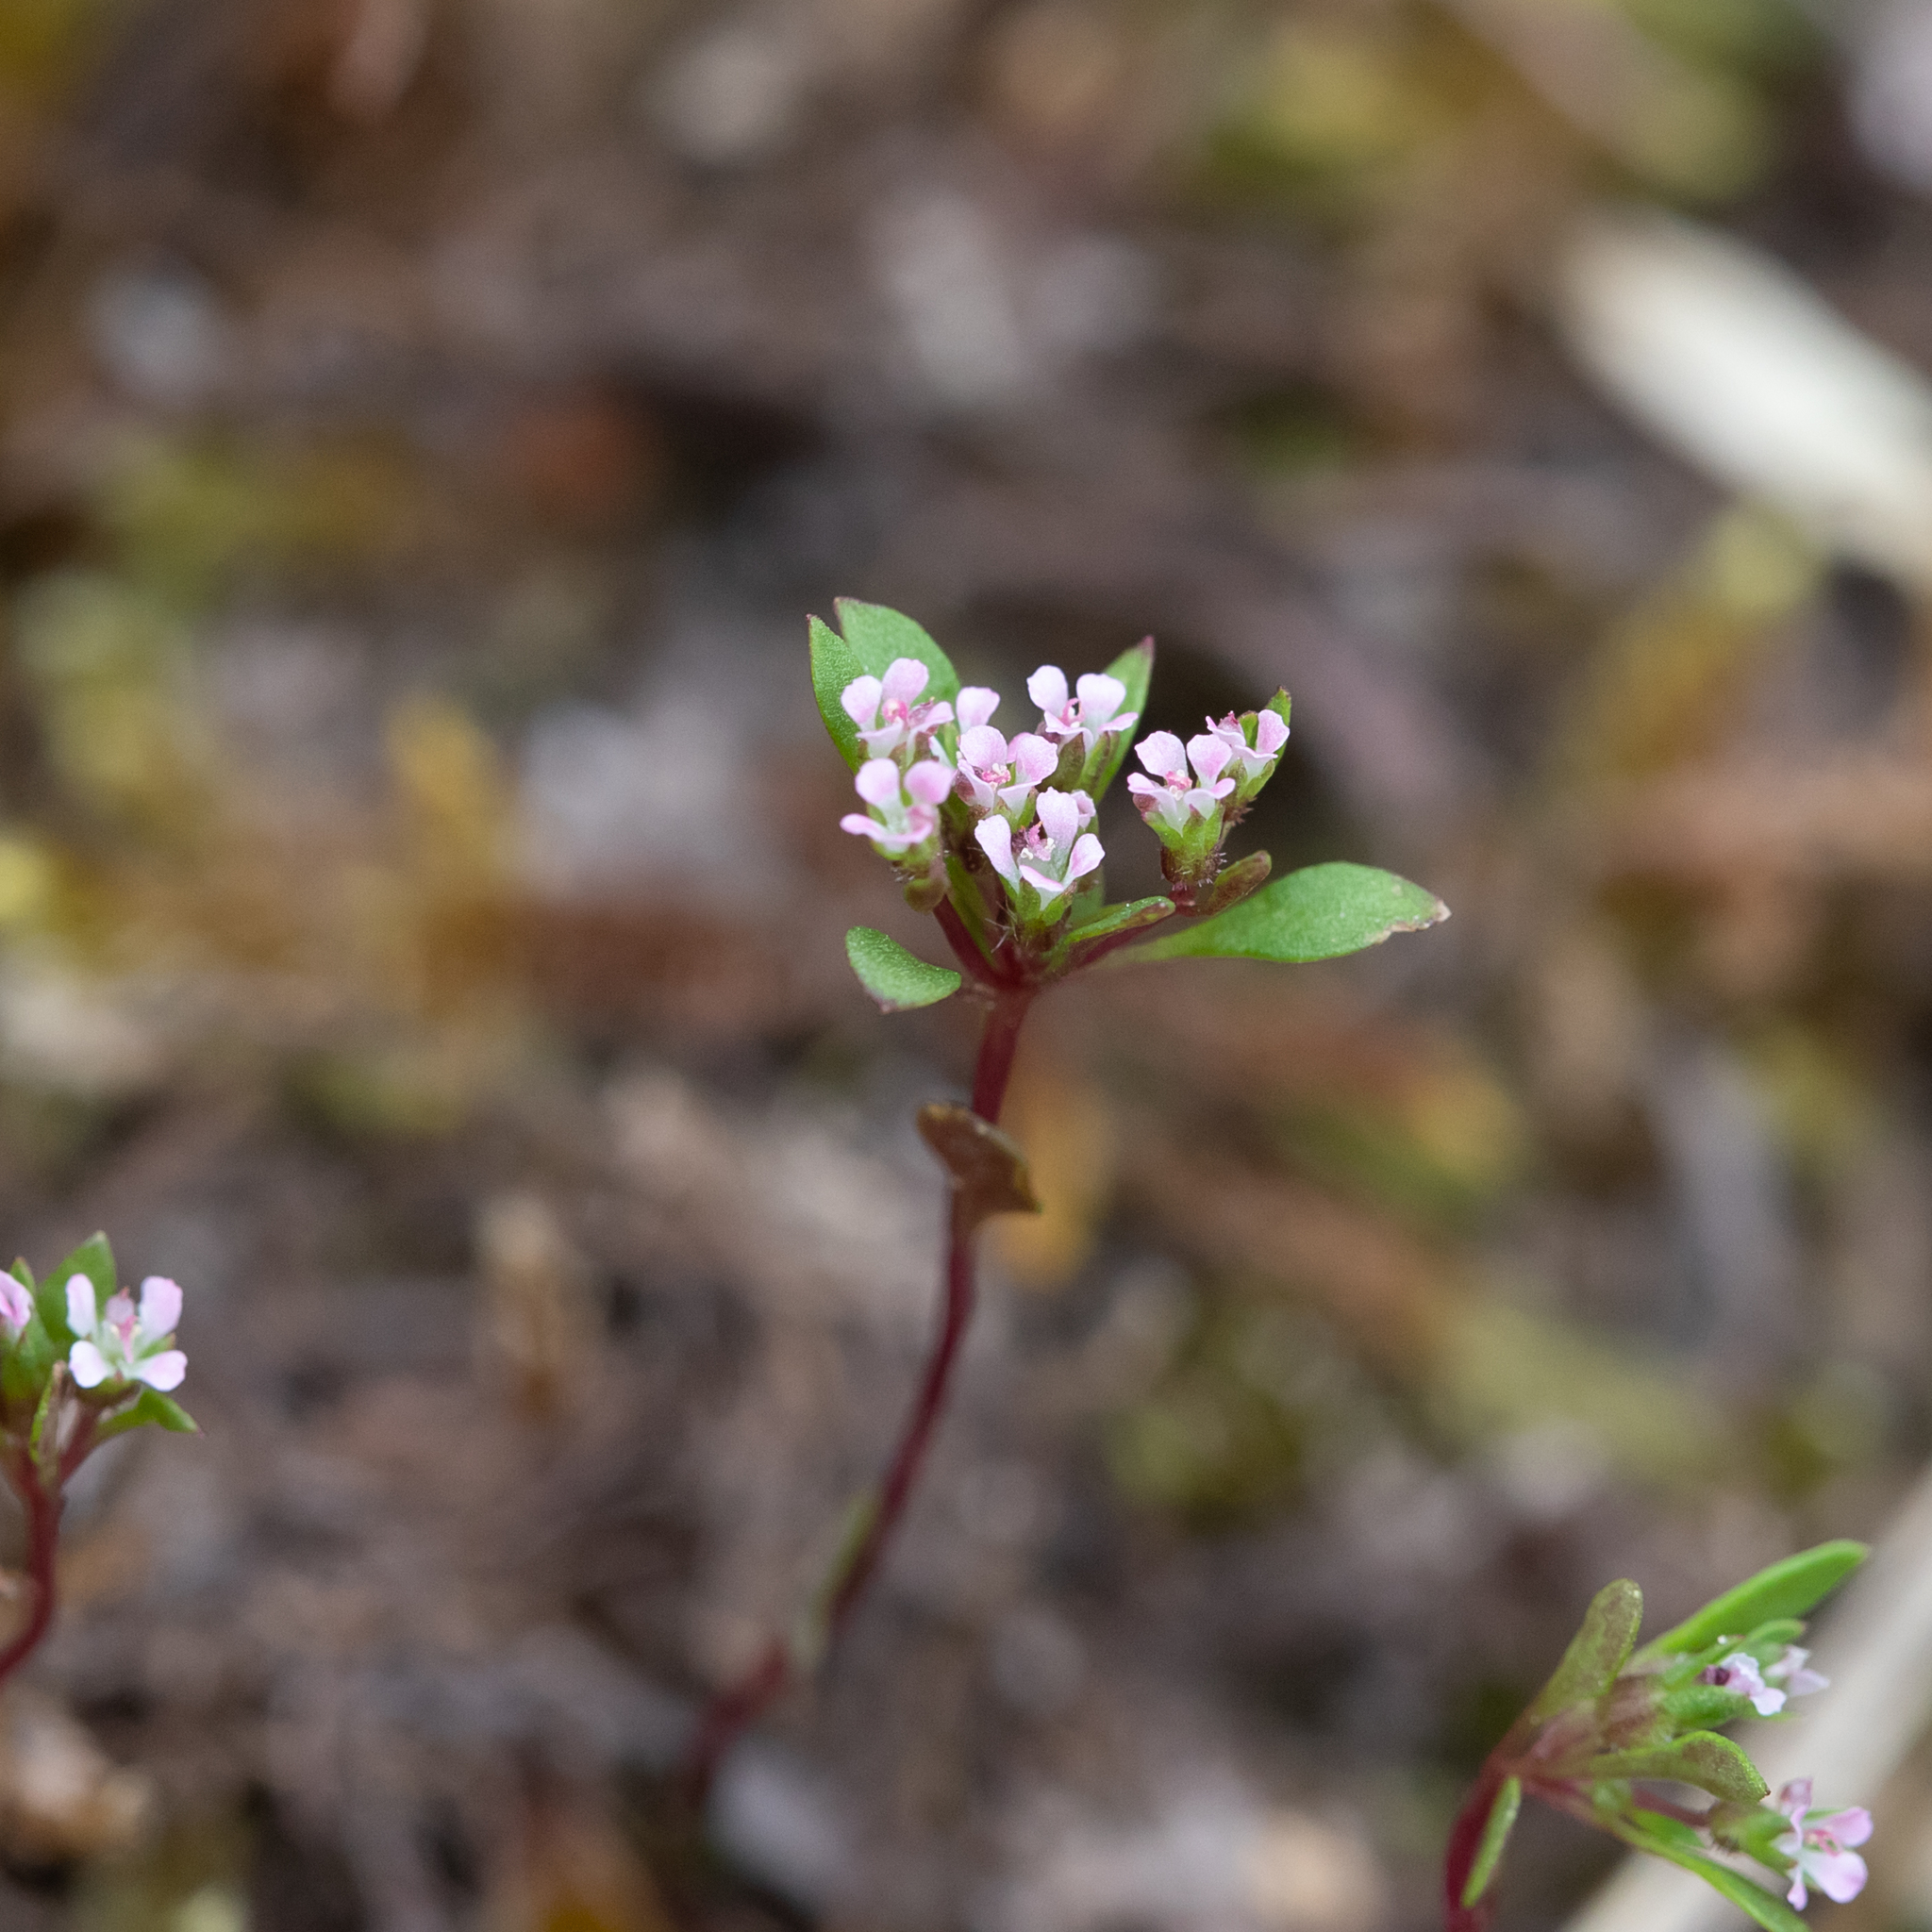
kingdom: Plantae
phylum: Tracheophyta
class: Magnoliopsida
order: Asterales
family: Stylidiaceae
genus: Levenhookia
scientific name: Levenhookia pusilla
